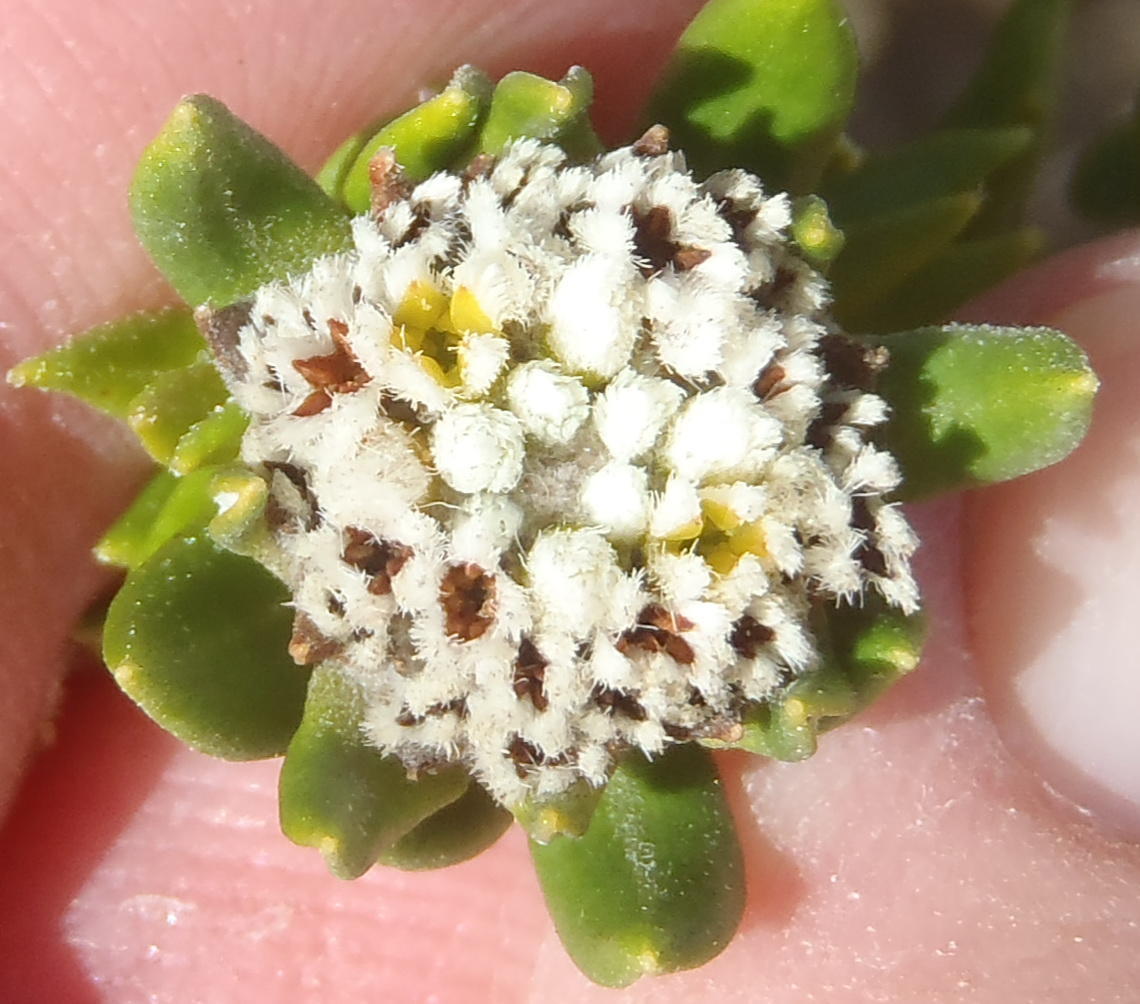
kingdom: Plantae
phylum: Tracheophyta
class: Magnoliopsida
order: Rosales
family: Rhamnaceae
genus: Phylica
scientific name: Phylica litoralis
